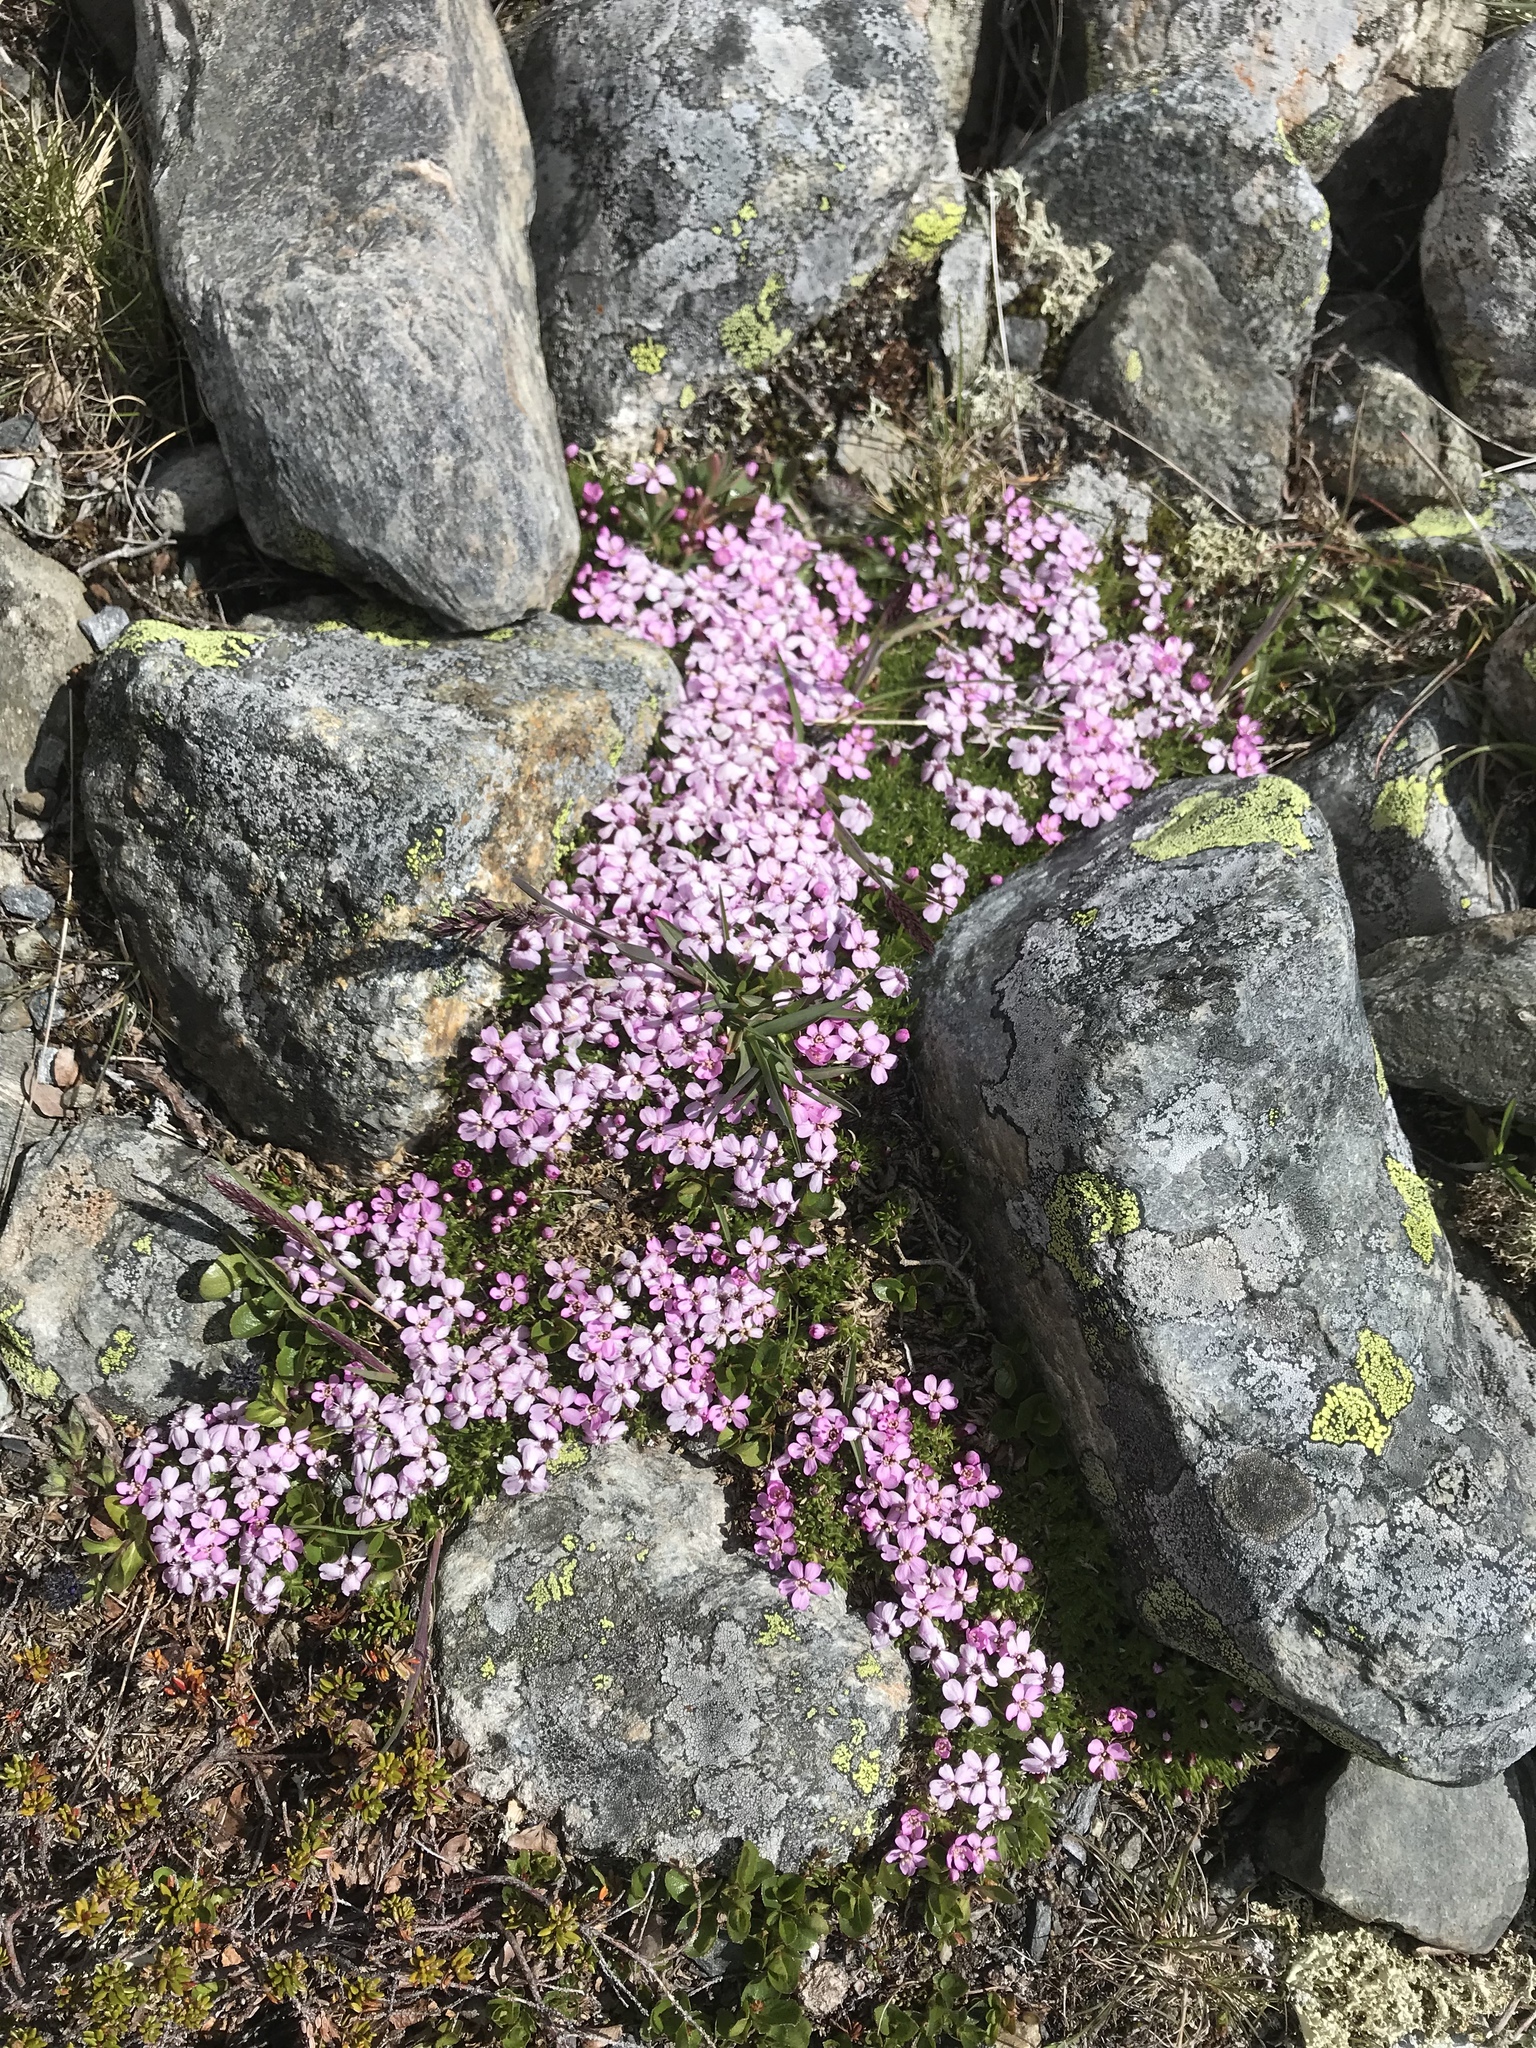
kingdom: Plantae
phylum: Tracheophyta
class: Magnoliopsida
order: Caryophyllales
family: Caryophyllaceae
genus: Silene
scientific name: Silene acaulis
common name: Moss campion
